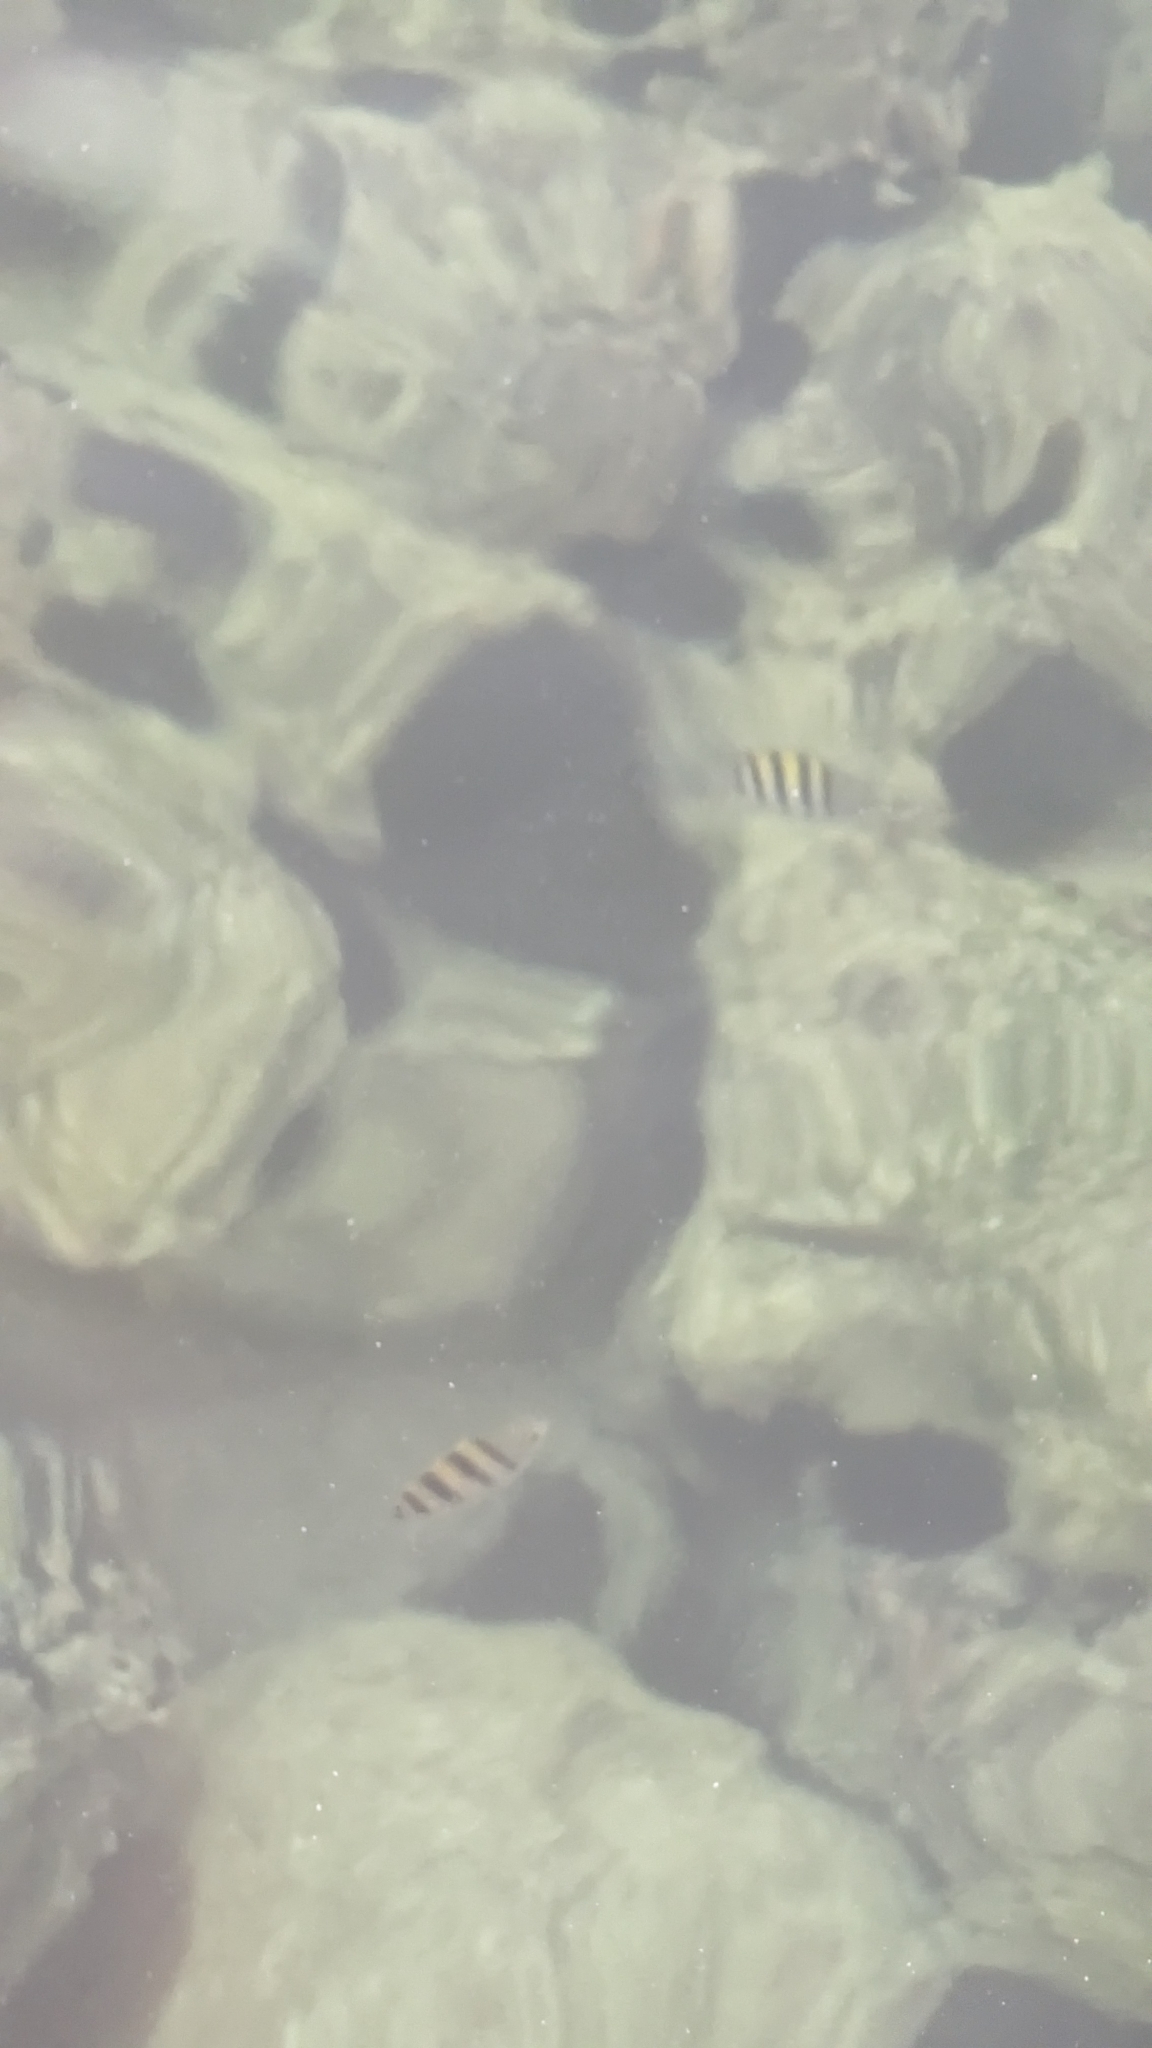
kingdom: Animalia
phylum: Chordata
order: Perciformes
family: Pomacentridae
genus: Abudefduf
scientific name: Abudefduf saxatilis
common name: Sergeant major
